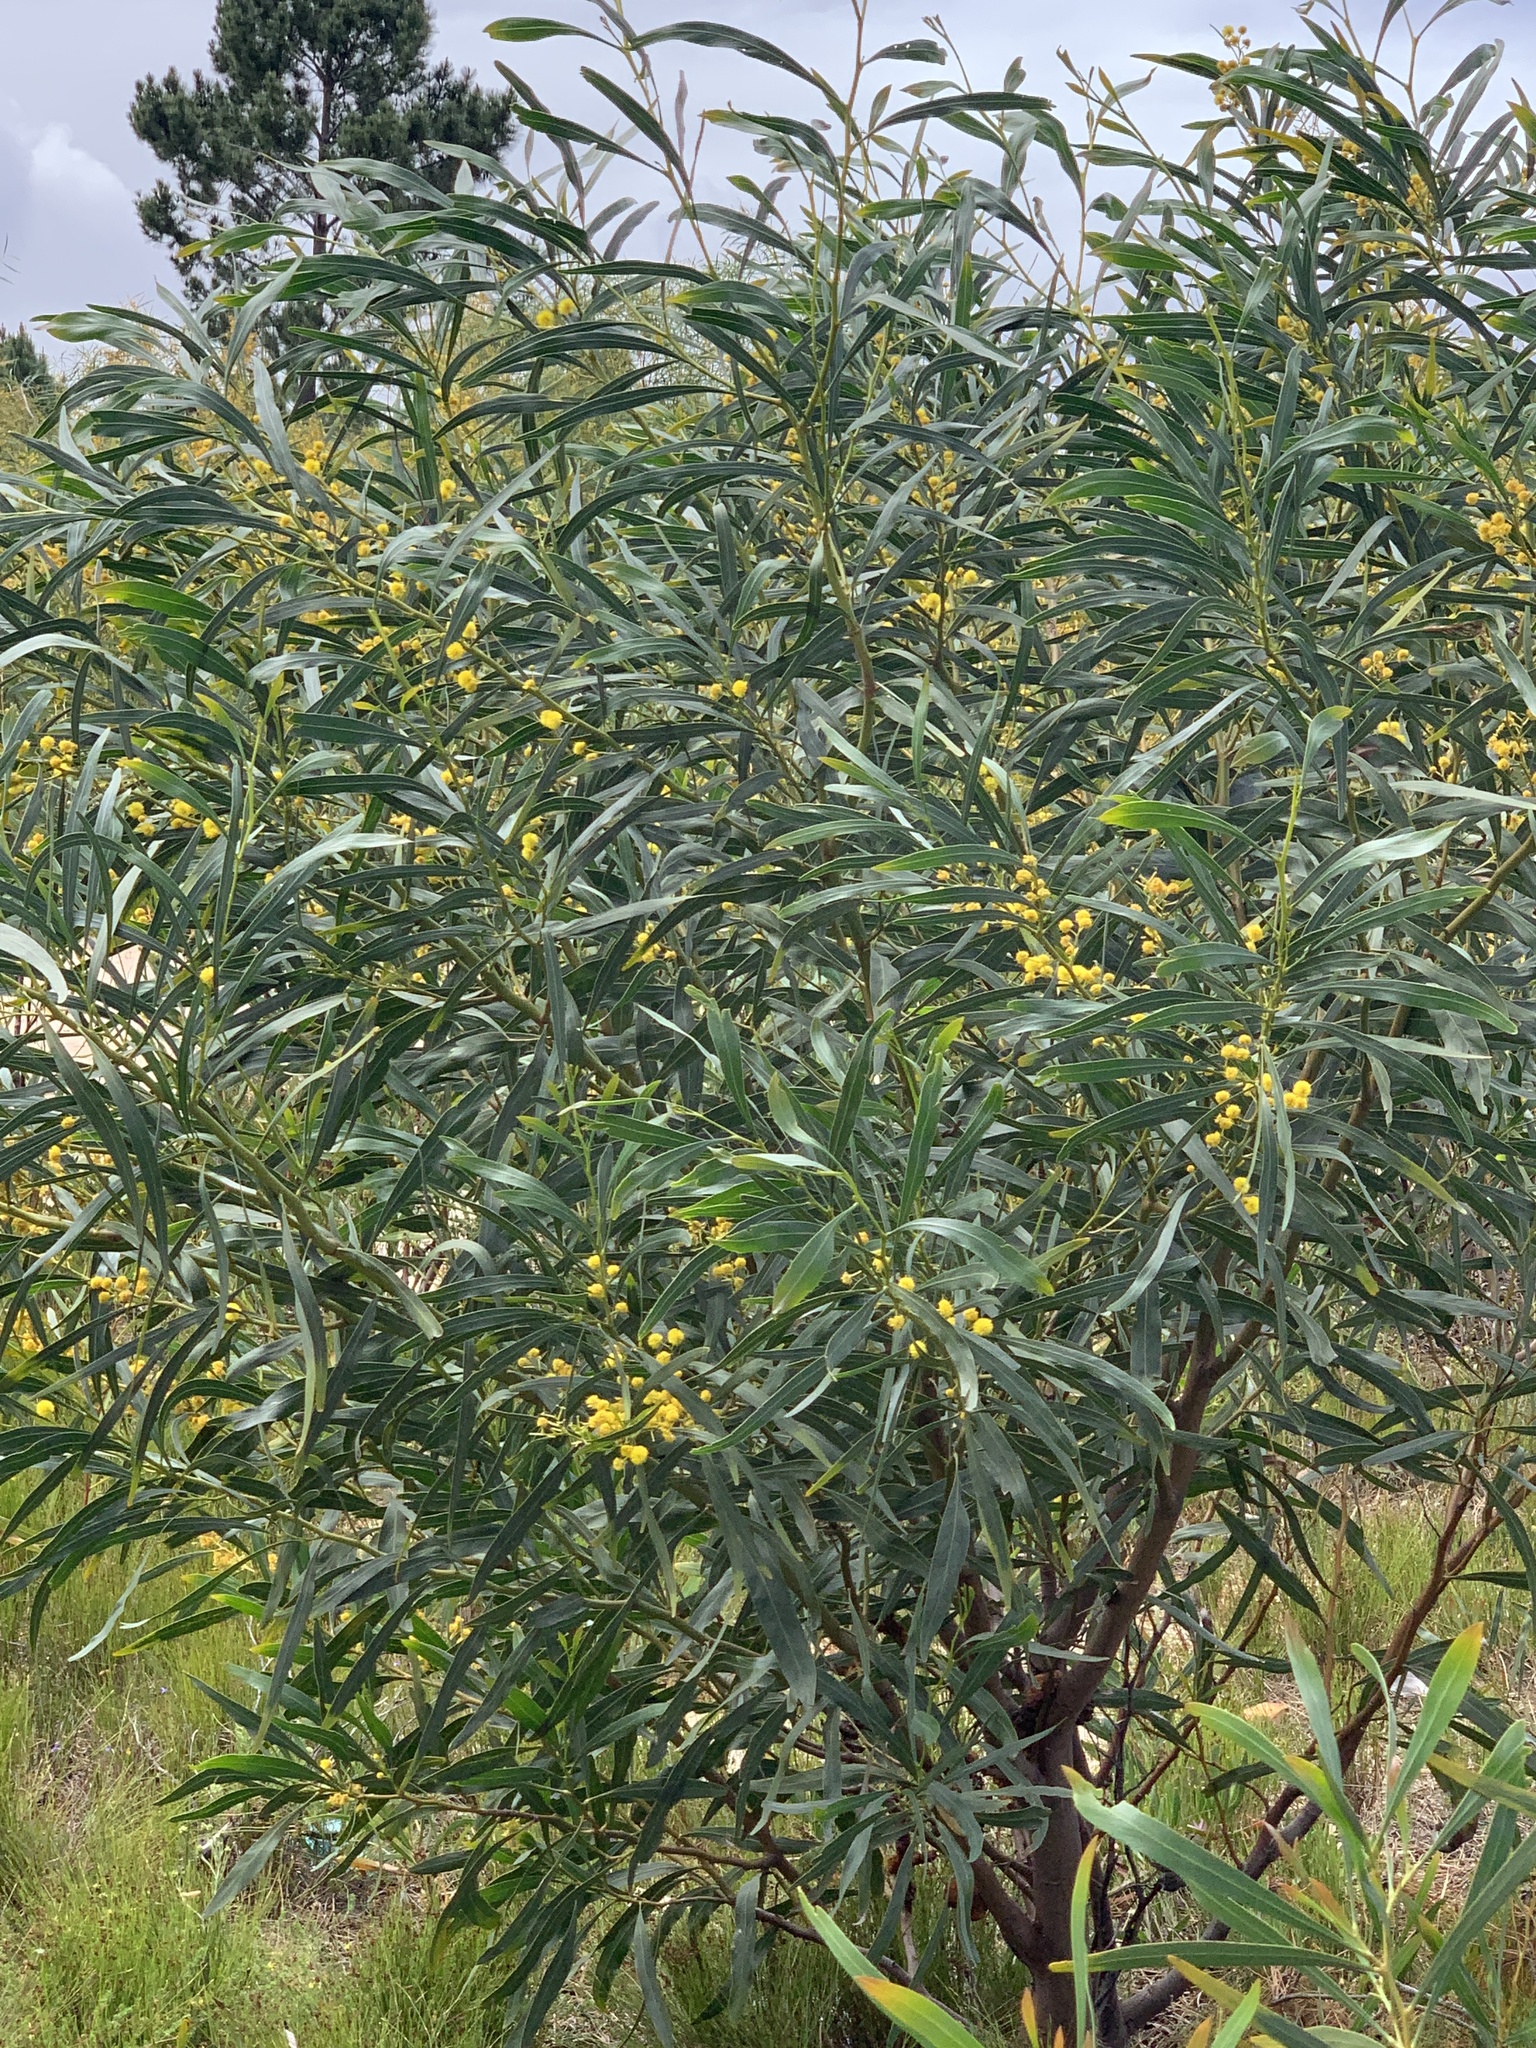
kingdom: Plantae
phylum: Tracheophyta
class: Magnoliopsida
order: Fabales
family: Fabaceae
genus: Acacia
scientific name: Acacia saligna
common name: Orange wattle
